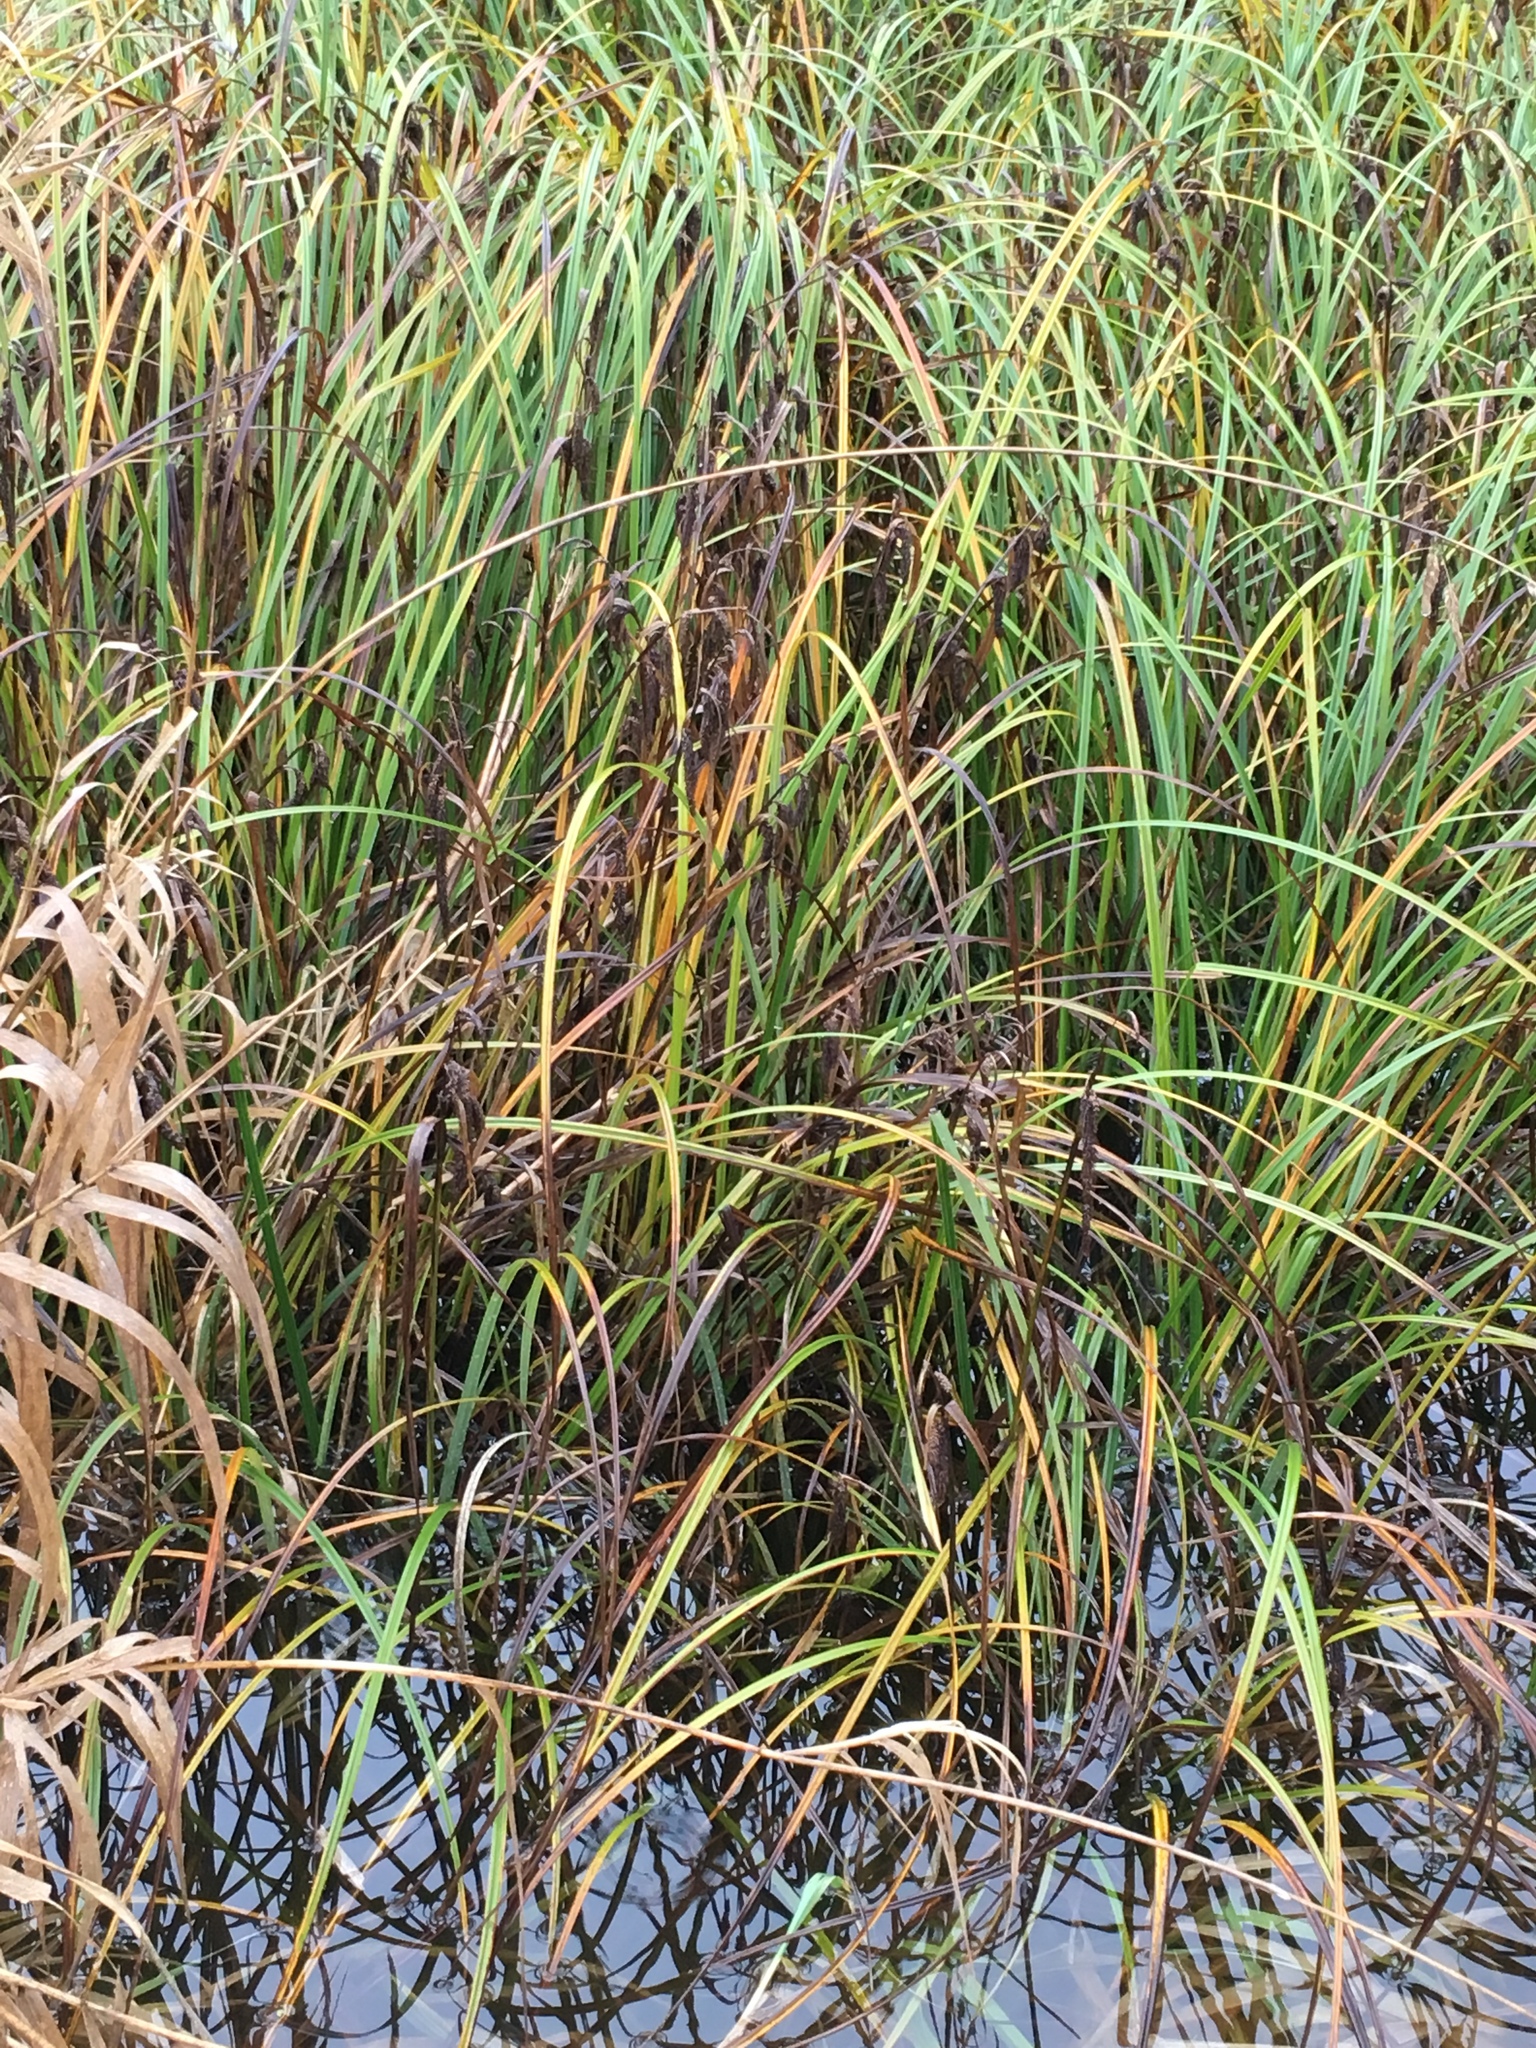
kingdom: Plantae
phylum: Tracheophyta
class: Liliopsida
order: Poales
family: Cyperaceae
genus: Carex
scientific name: Carex obnupta
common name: Slough sedge
